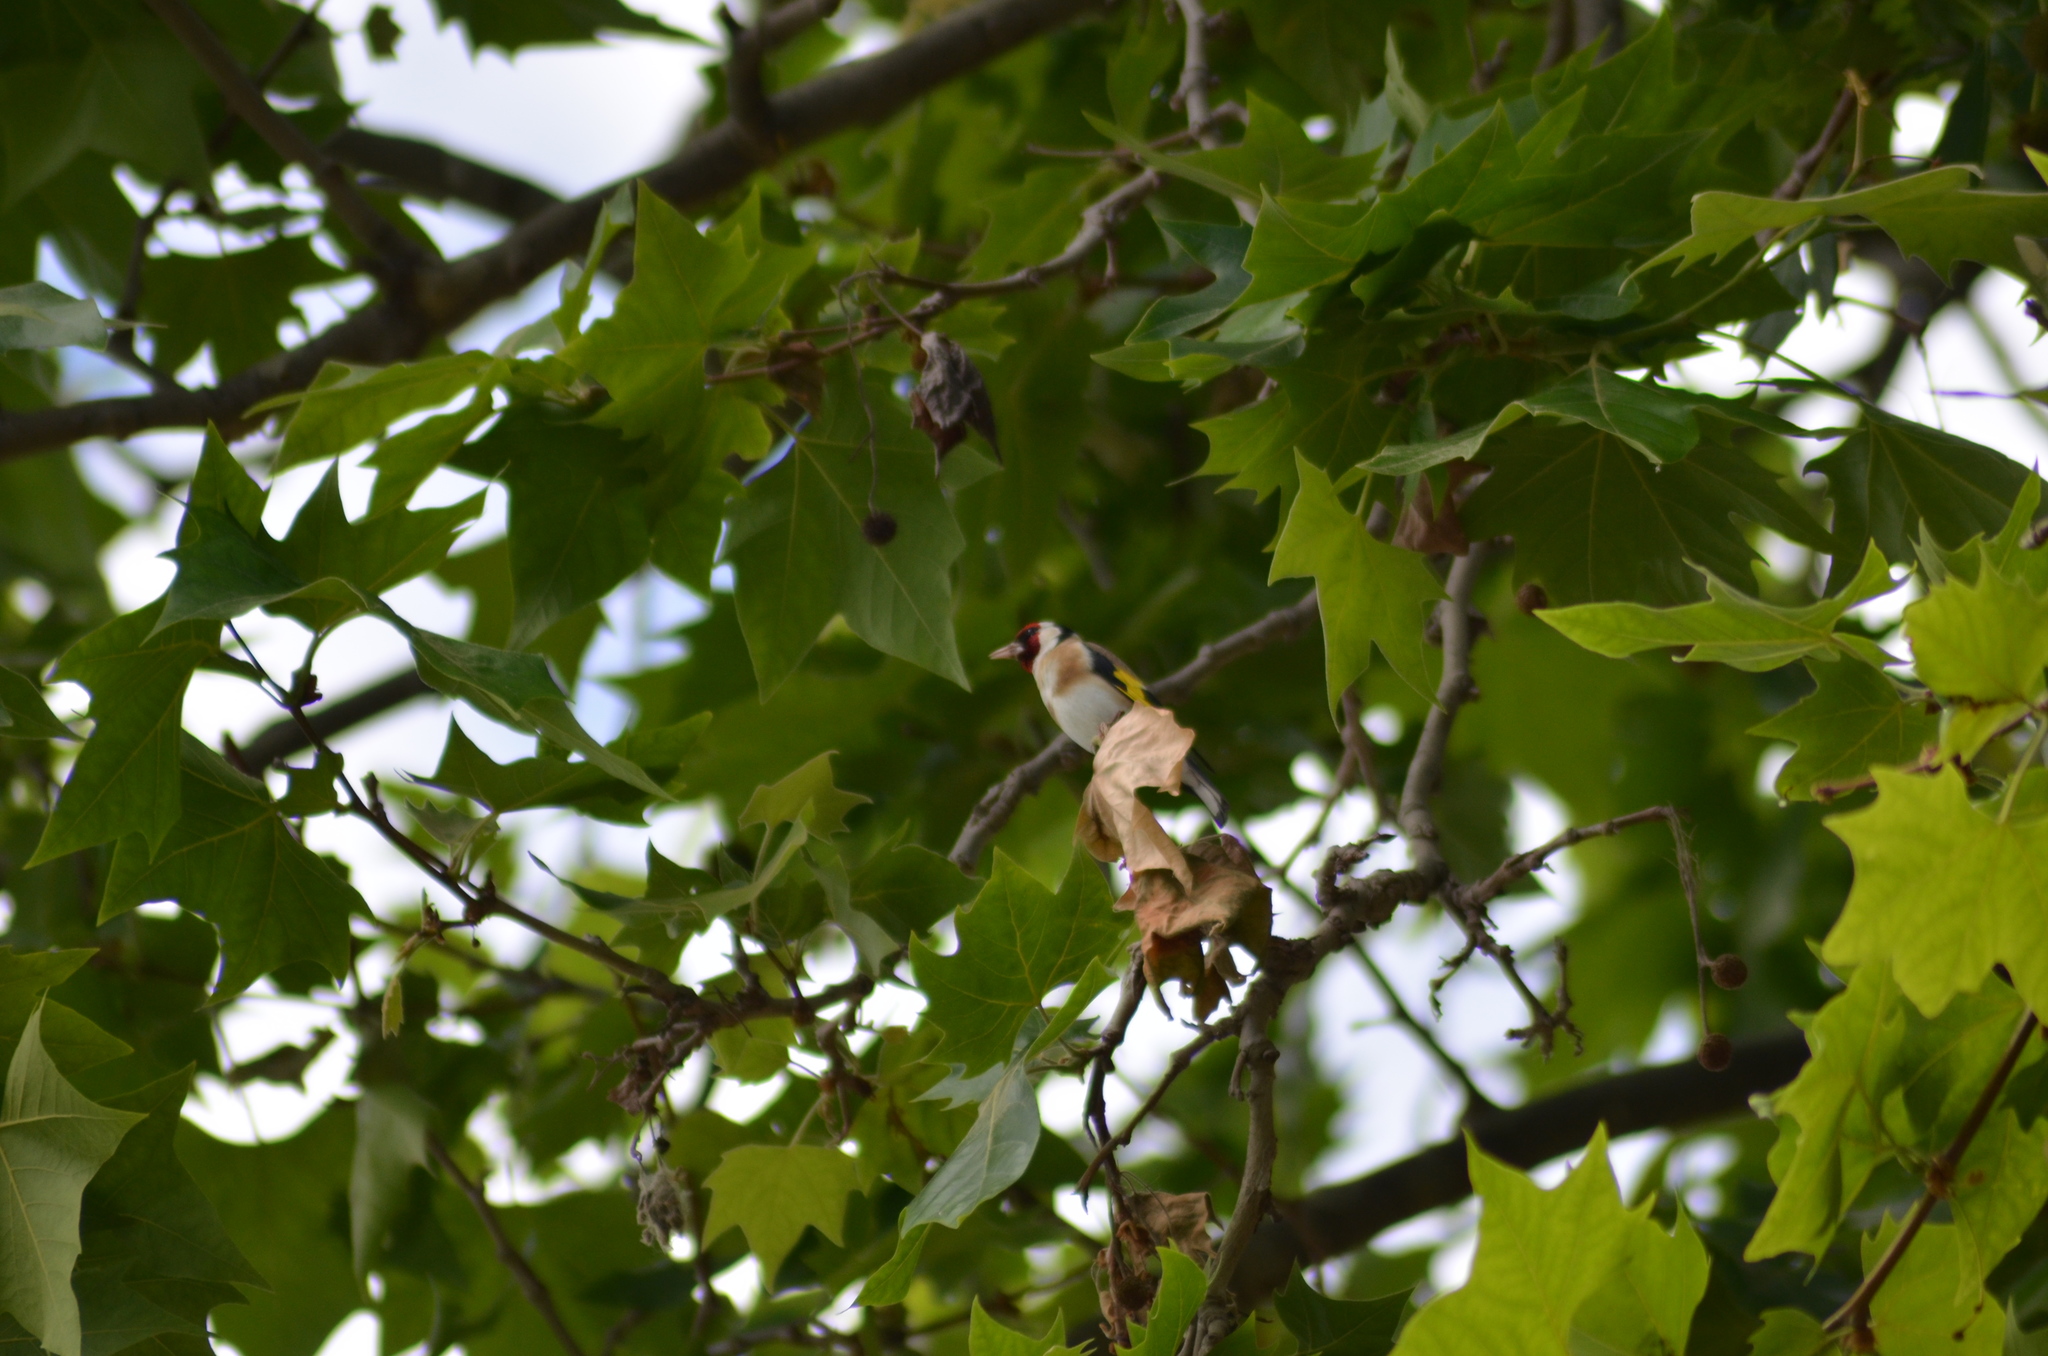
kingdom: Animalia
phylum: Chordata
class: Aves
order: Passeriformes
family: Fringillidae
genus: Carduelis
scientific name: Carduelis carduelis
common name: European goldfinch
